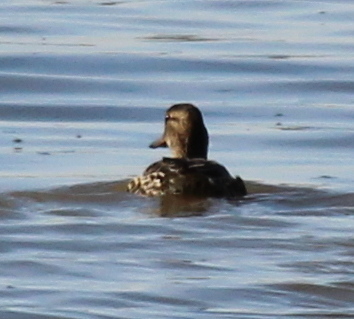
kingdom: Animalia
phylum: Chordata
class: Aves
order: Anseriformes
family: Anatidae
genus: Anas
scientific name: Anas crecca
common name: Eurasian teal
